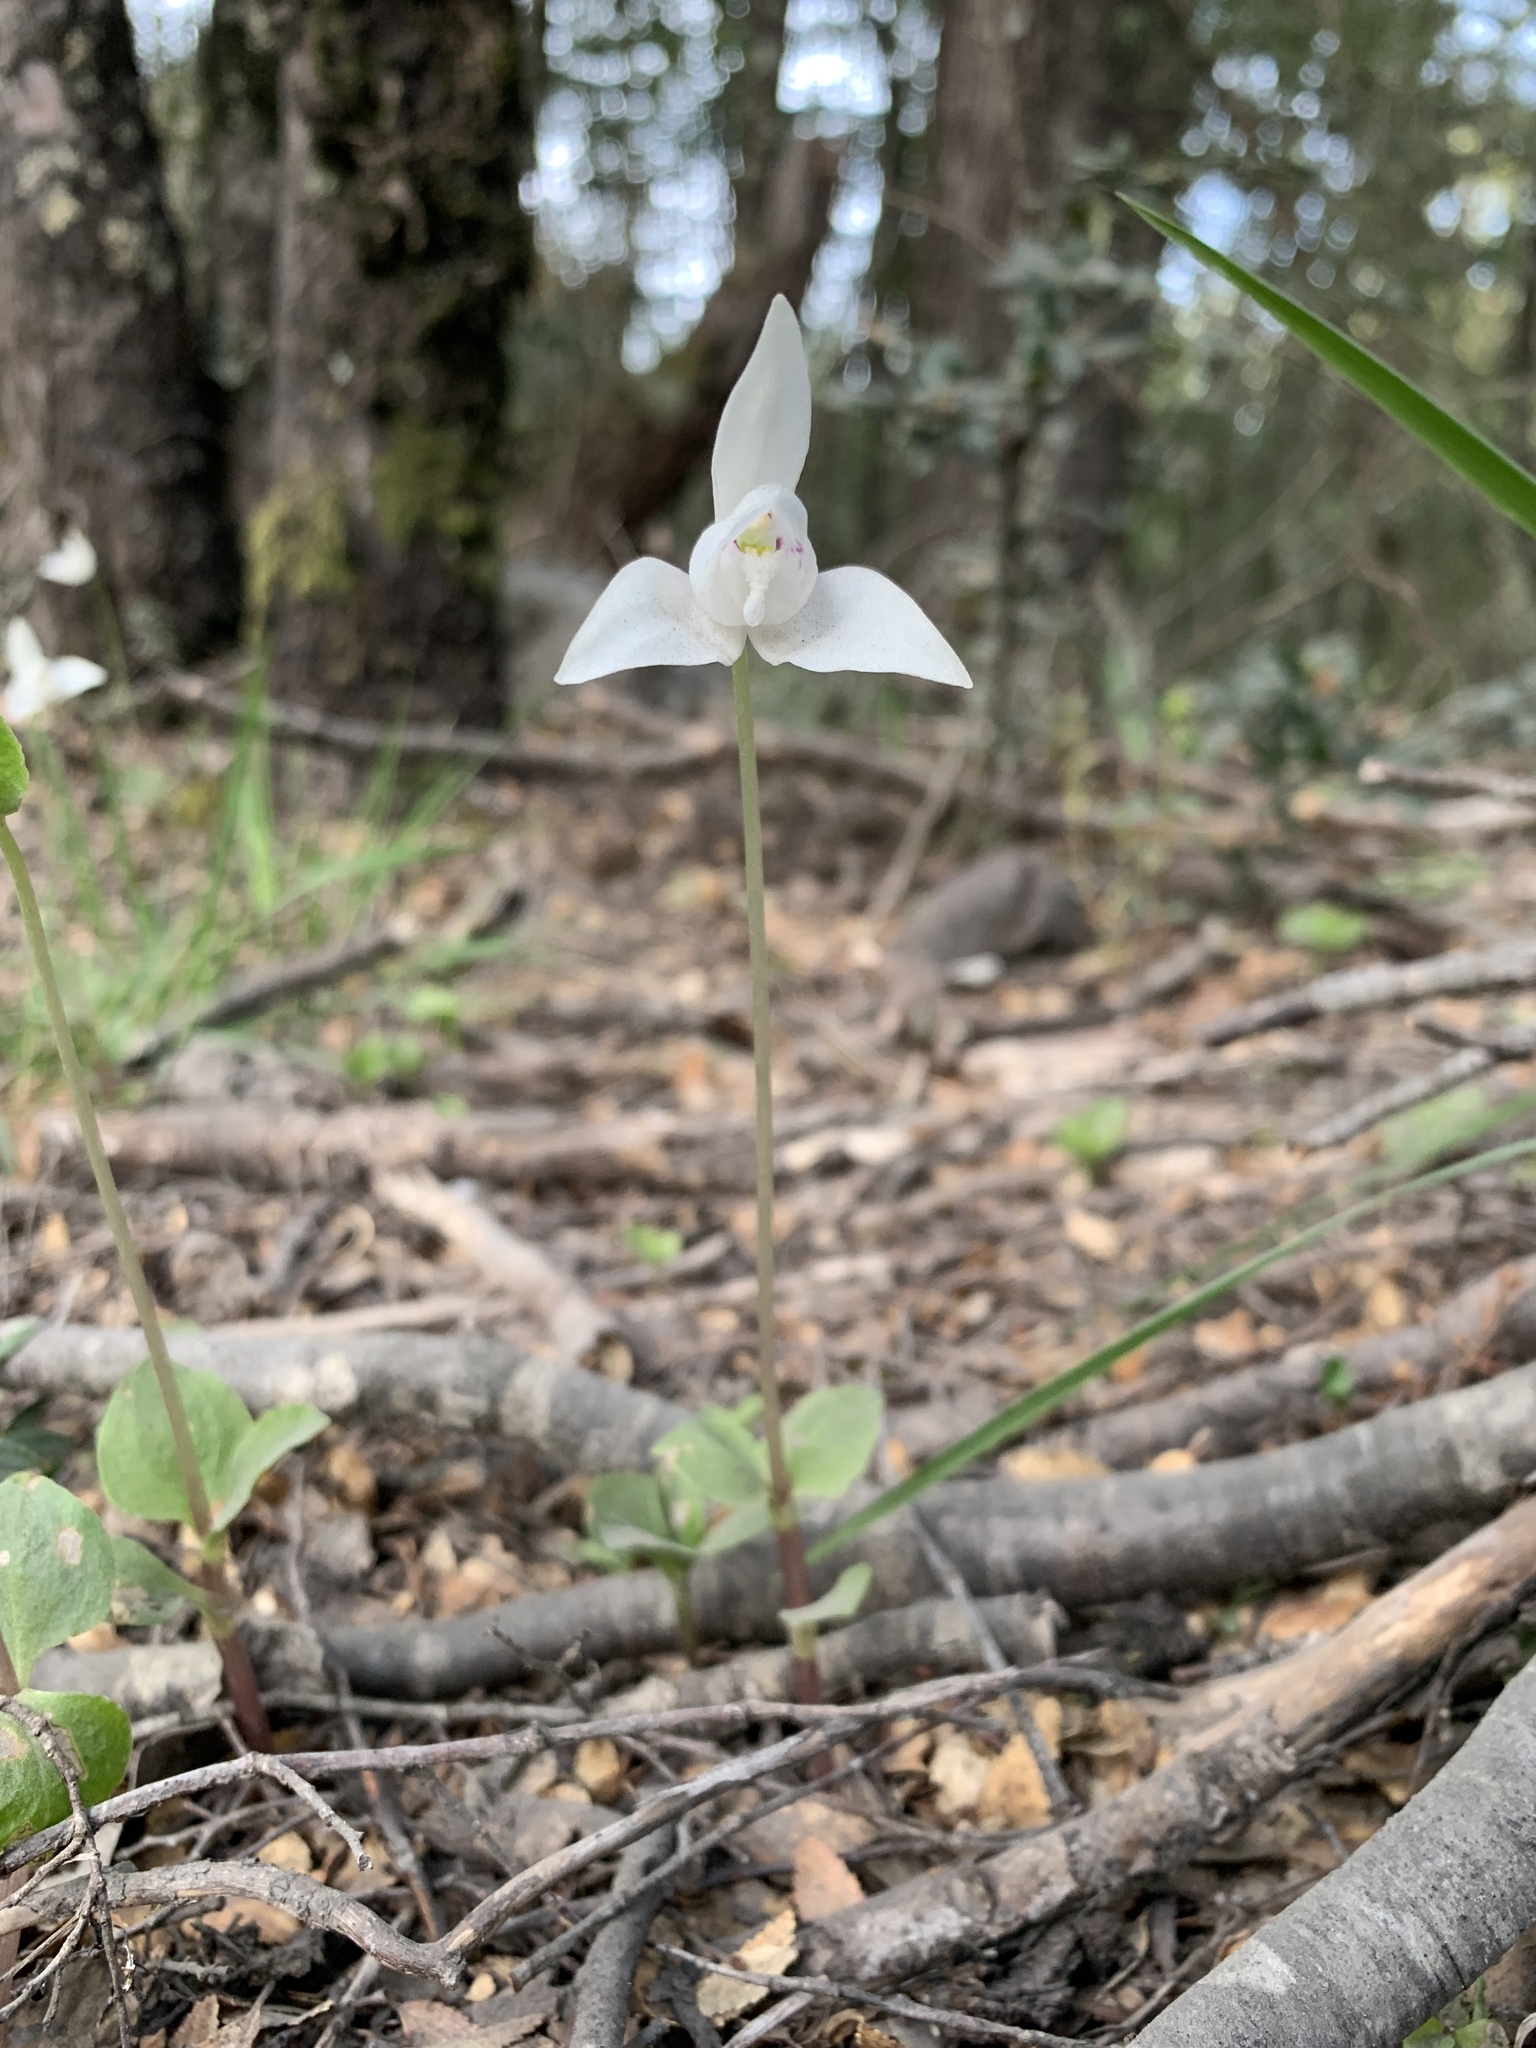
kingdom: Plantae
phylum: Tracheophyta
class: Liliopsida
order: Asparagales
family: Orchidaceae
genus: Codonorchis
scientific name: Codonorchis lessonii
